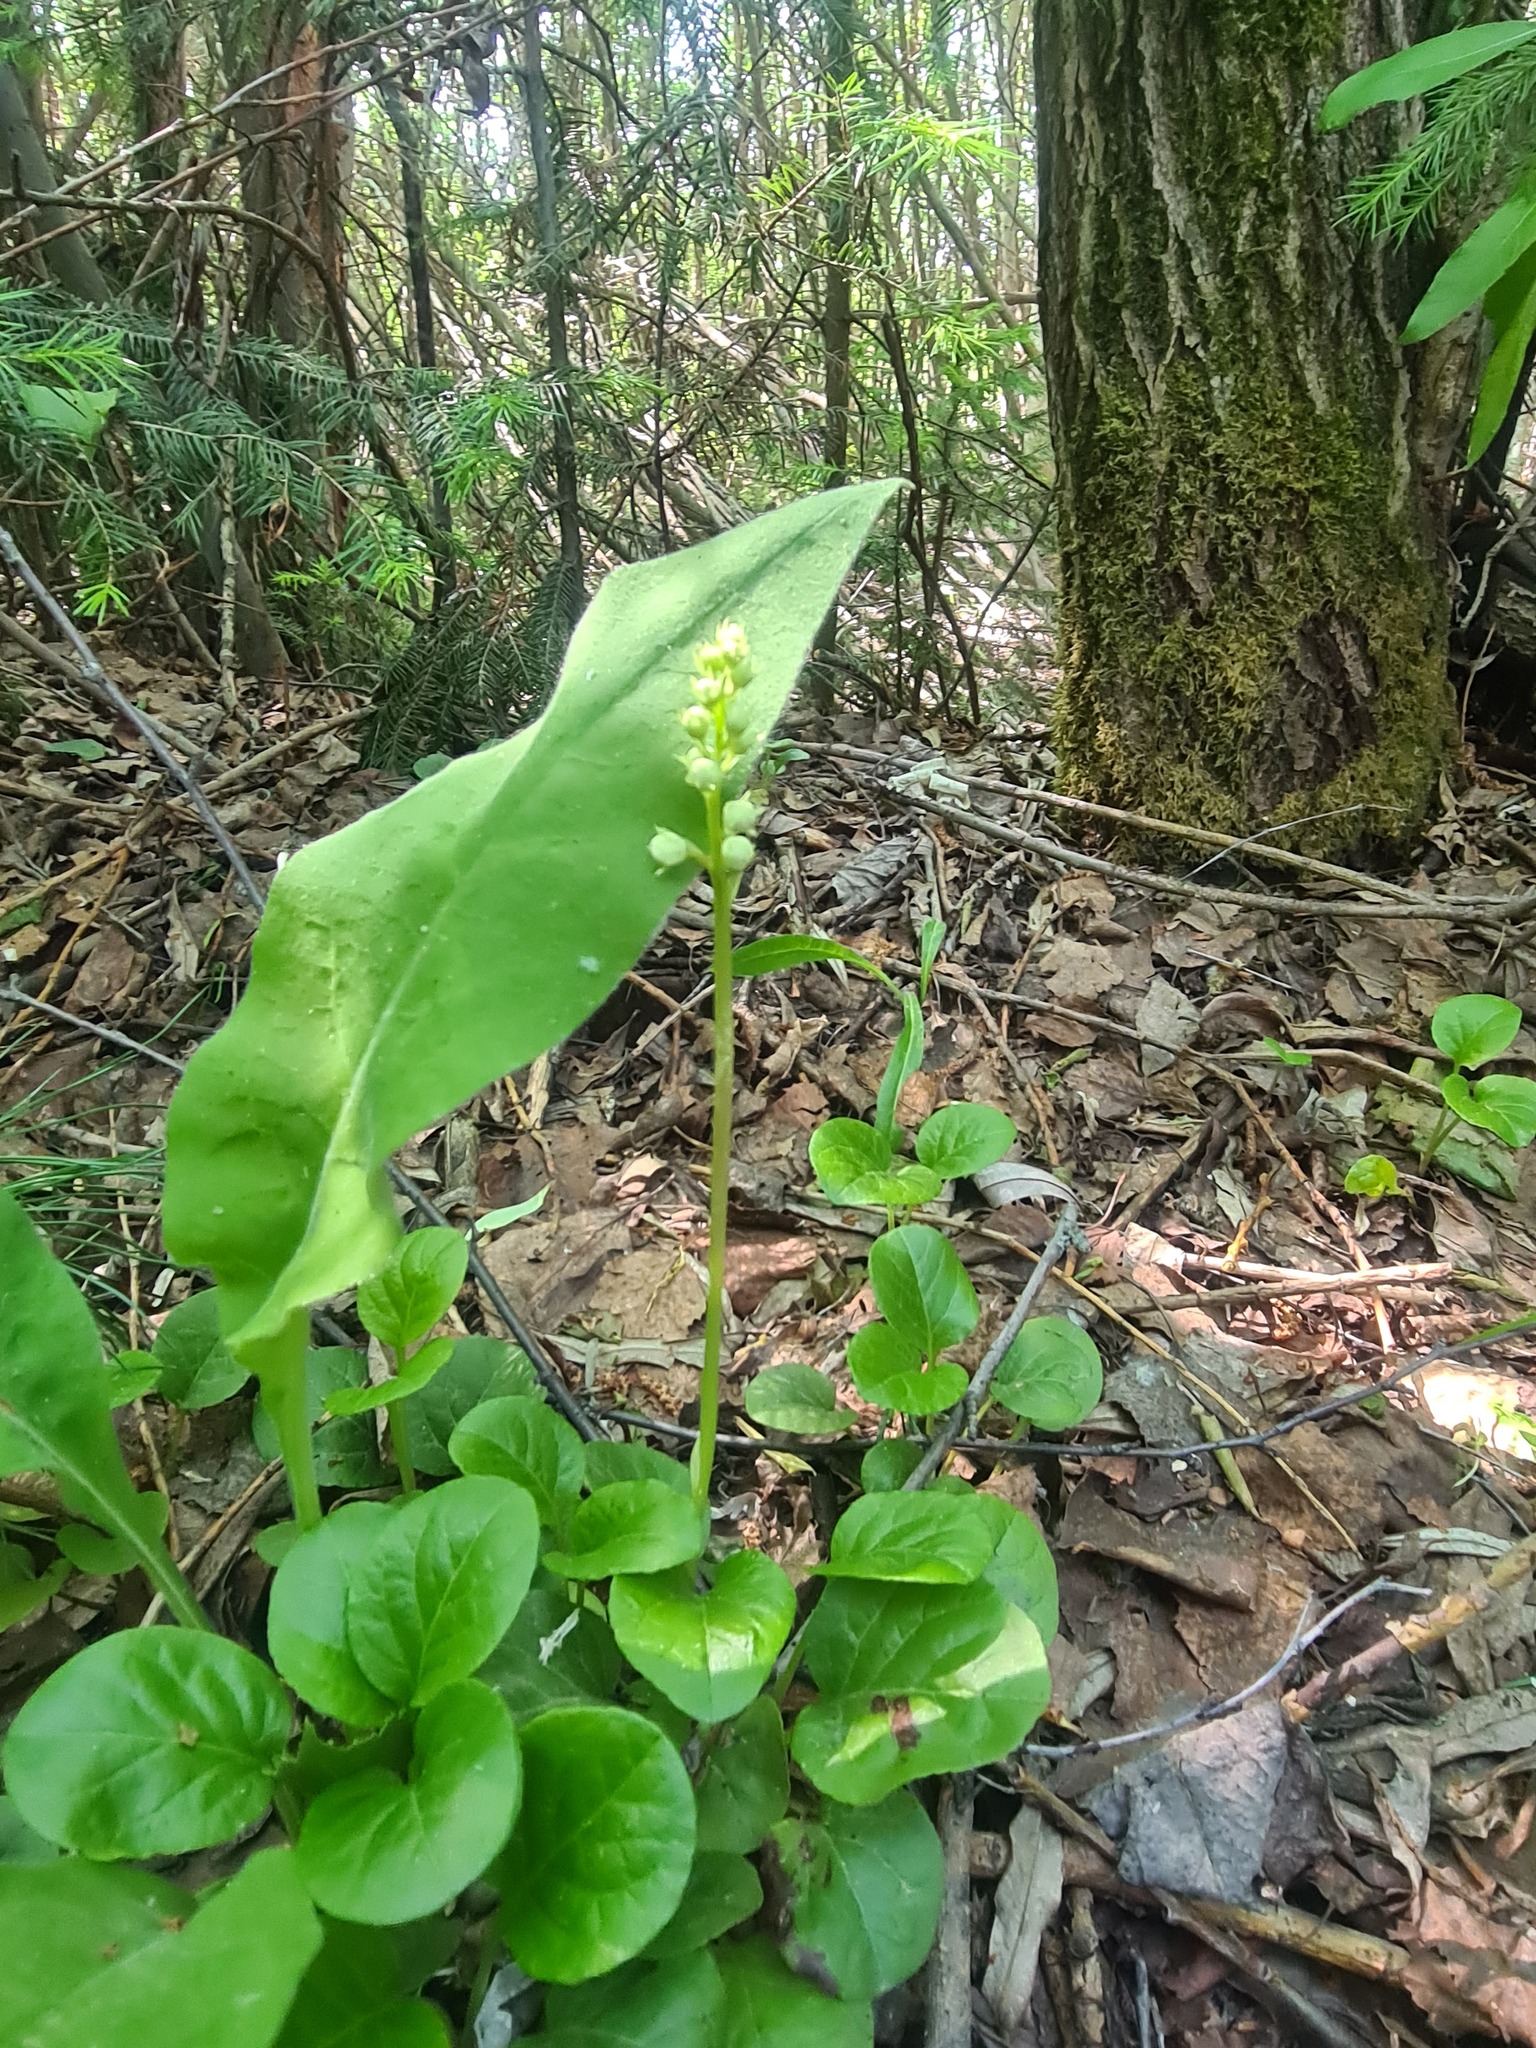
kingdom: Plantae
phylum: Tracheophyta
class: Magnoliopsida
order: Ericales
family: Ericaceae
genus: Pyrola
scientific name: Pyrola rotundifolia
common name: Round-leaved wintergreen
